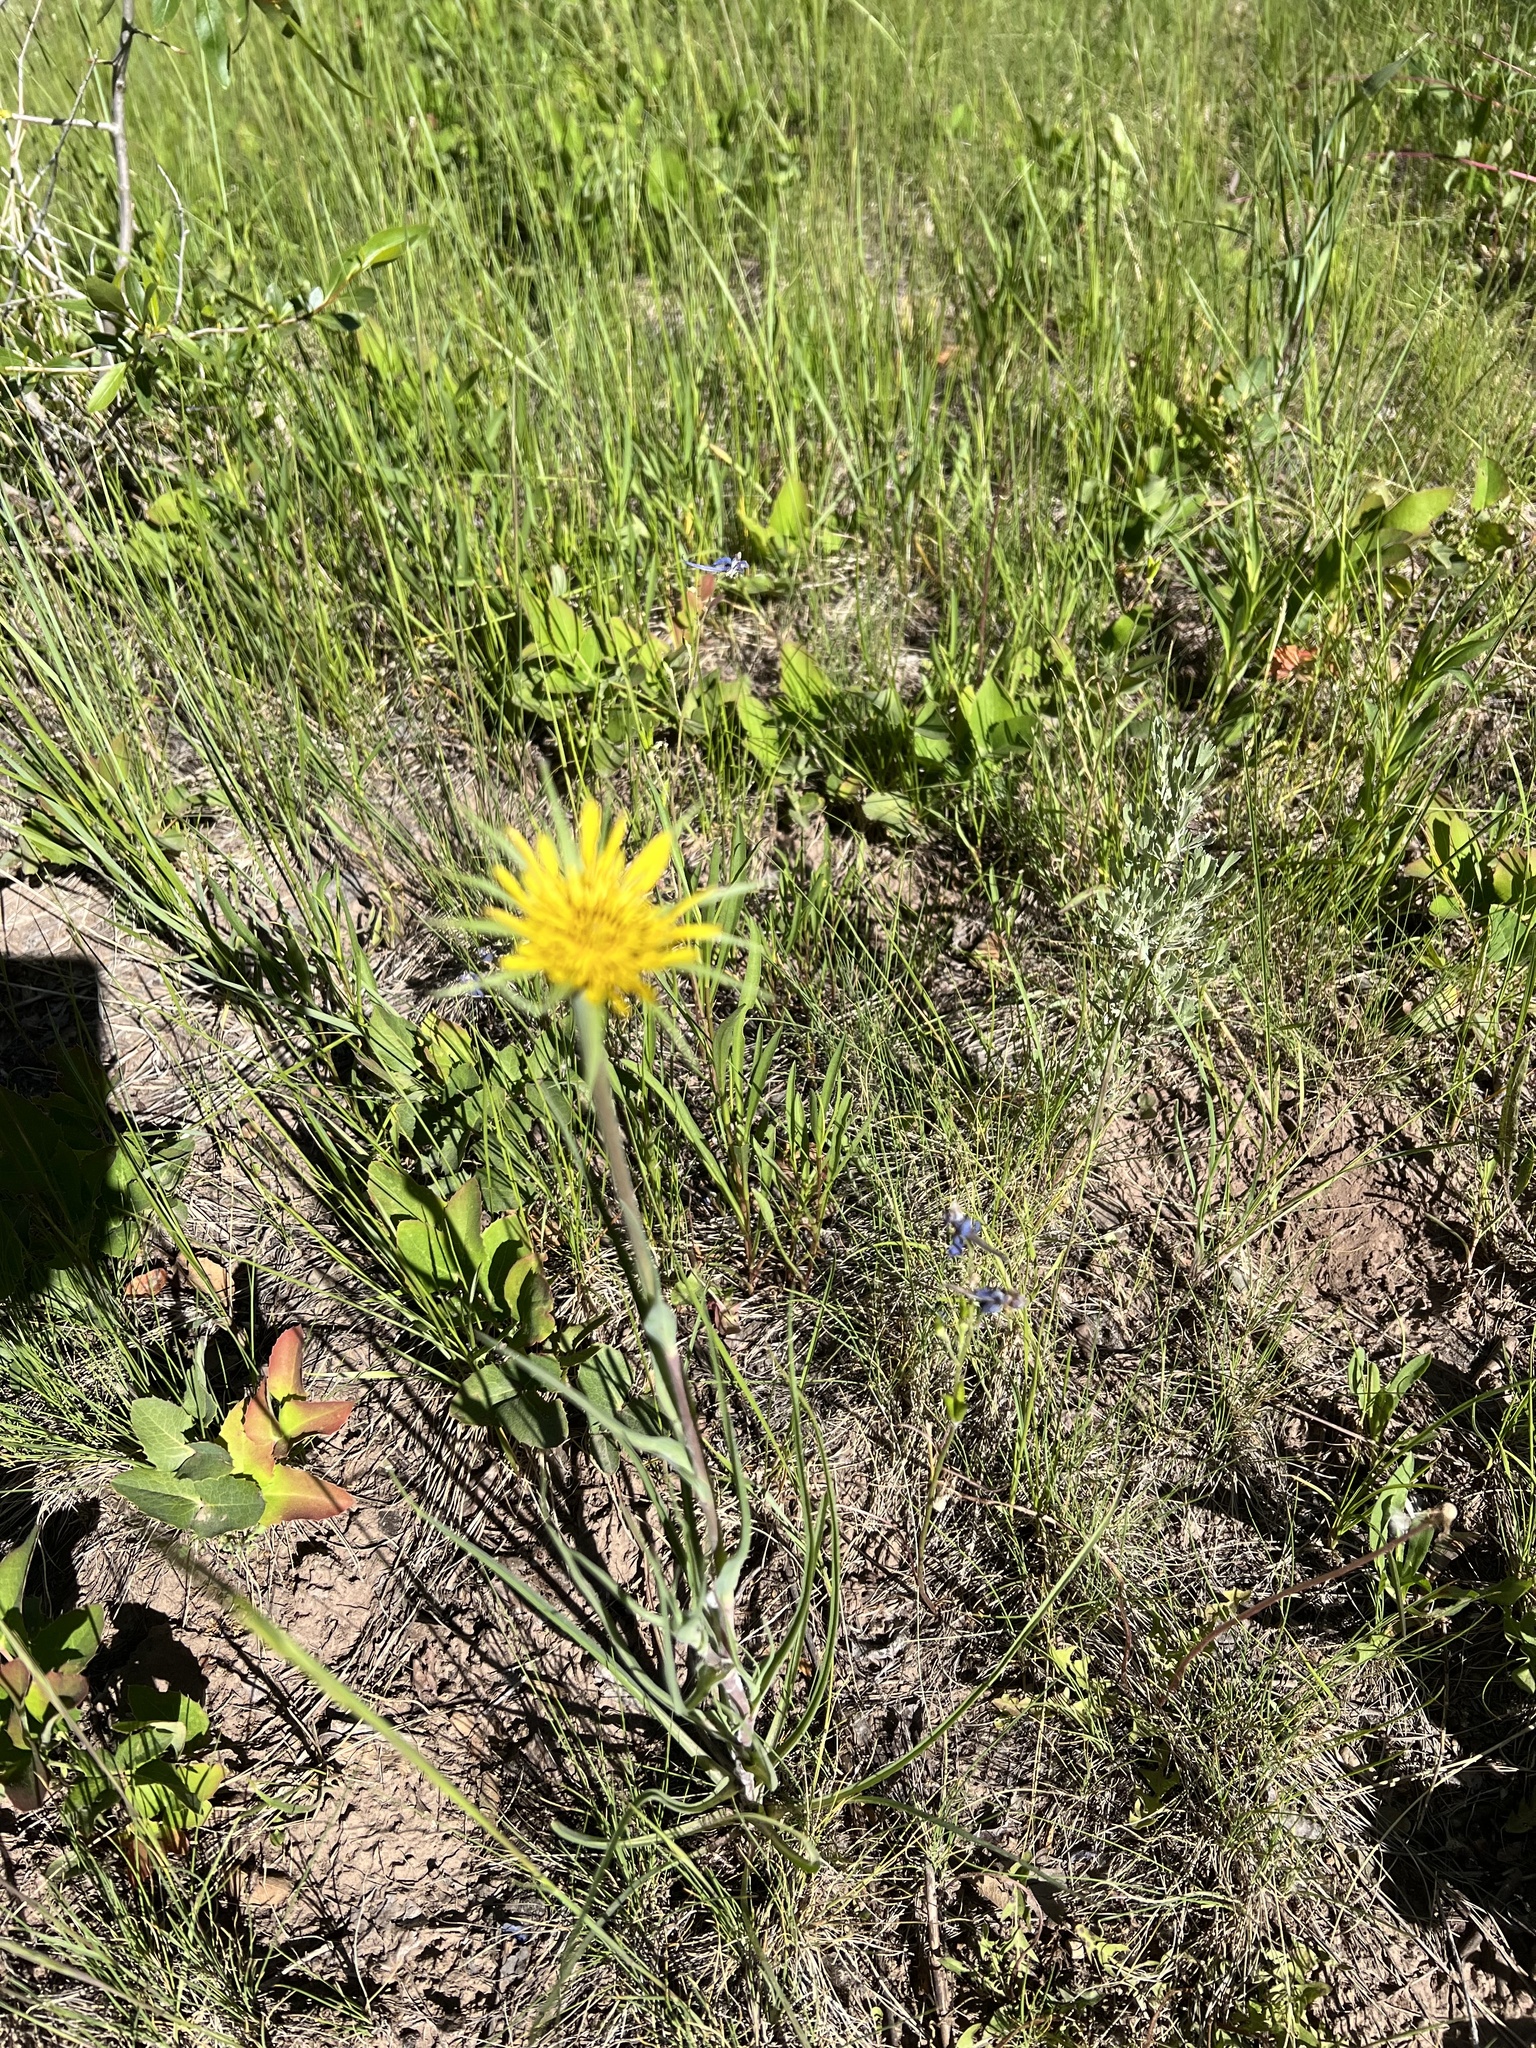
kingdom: Plantae
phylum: Tracheophyta
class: Magnoliopsida
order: Asterales
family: Asteraceae
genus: Tragopogon
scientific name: Tragopogon dubius
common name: Yellow salsify
